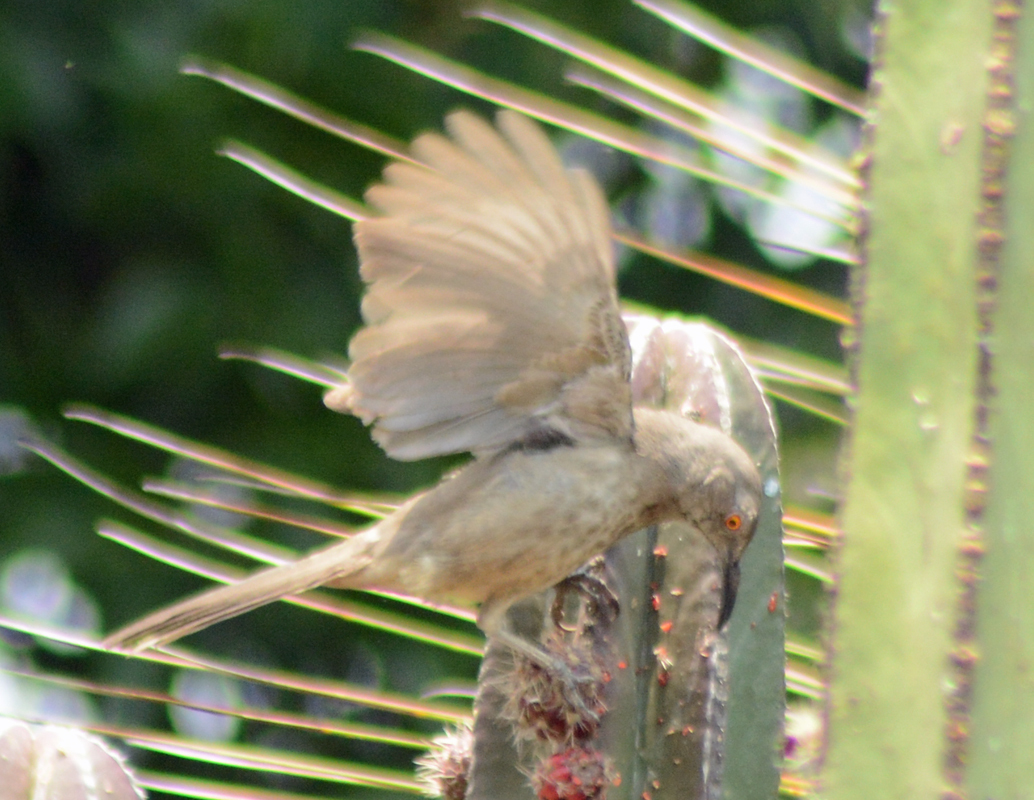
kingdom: Animalia
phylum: Chordata
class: Aves
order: Passeriformes
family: Mimidae
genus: Toxostoma
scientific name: Toxostoma curvirostre
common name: Curve-billed thrasher
